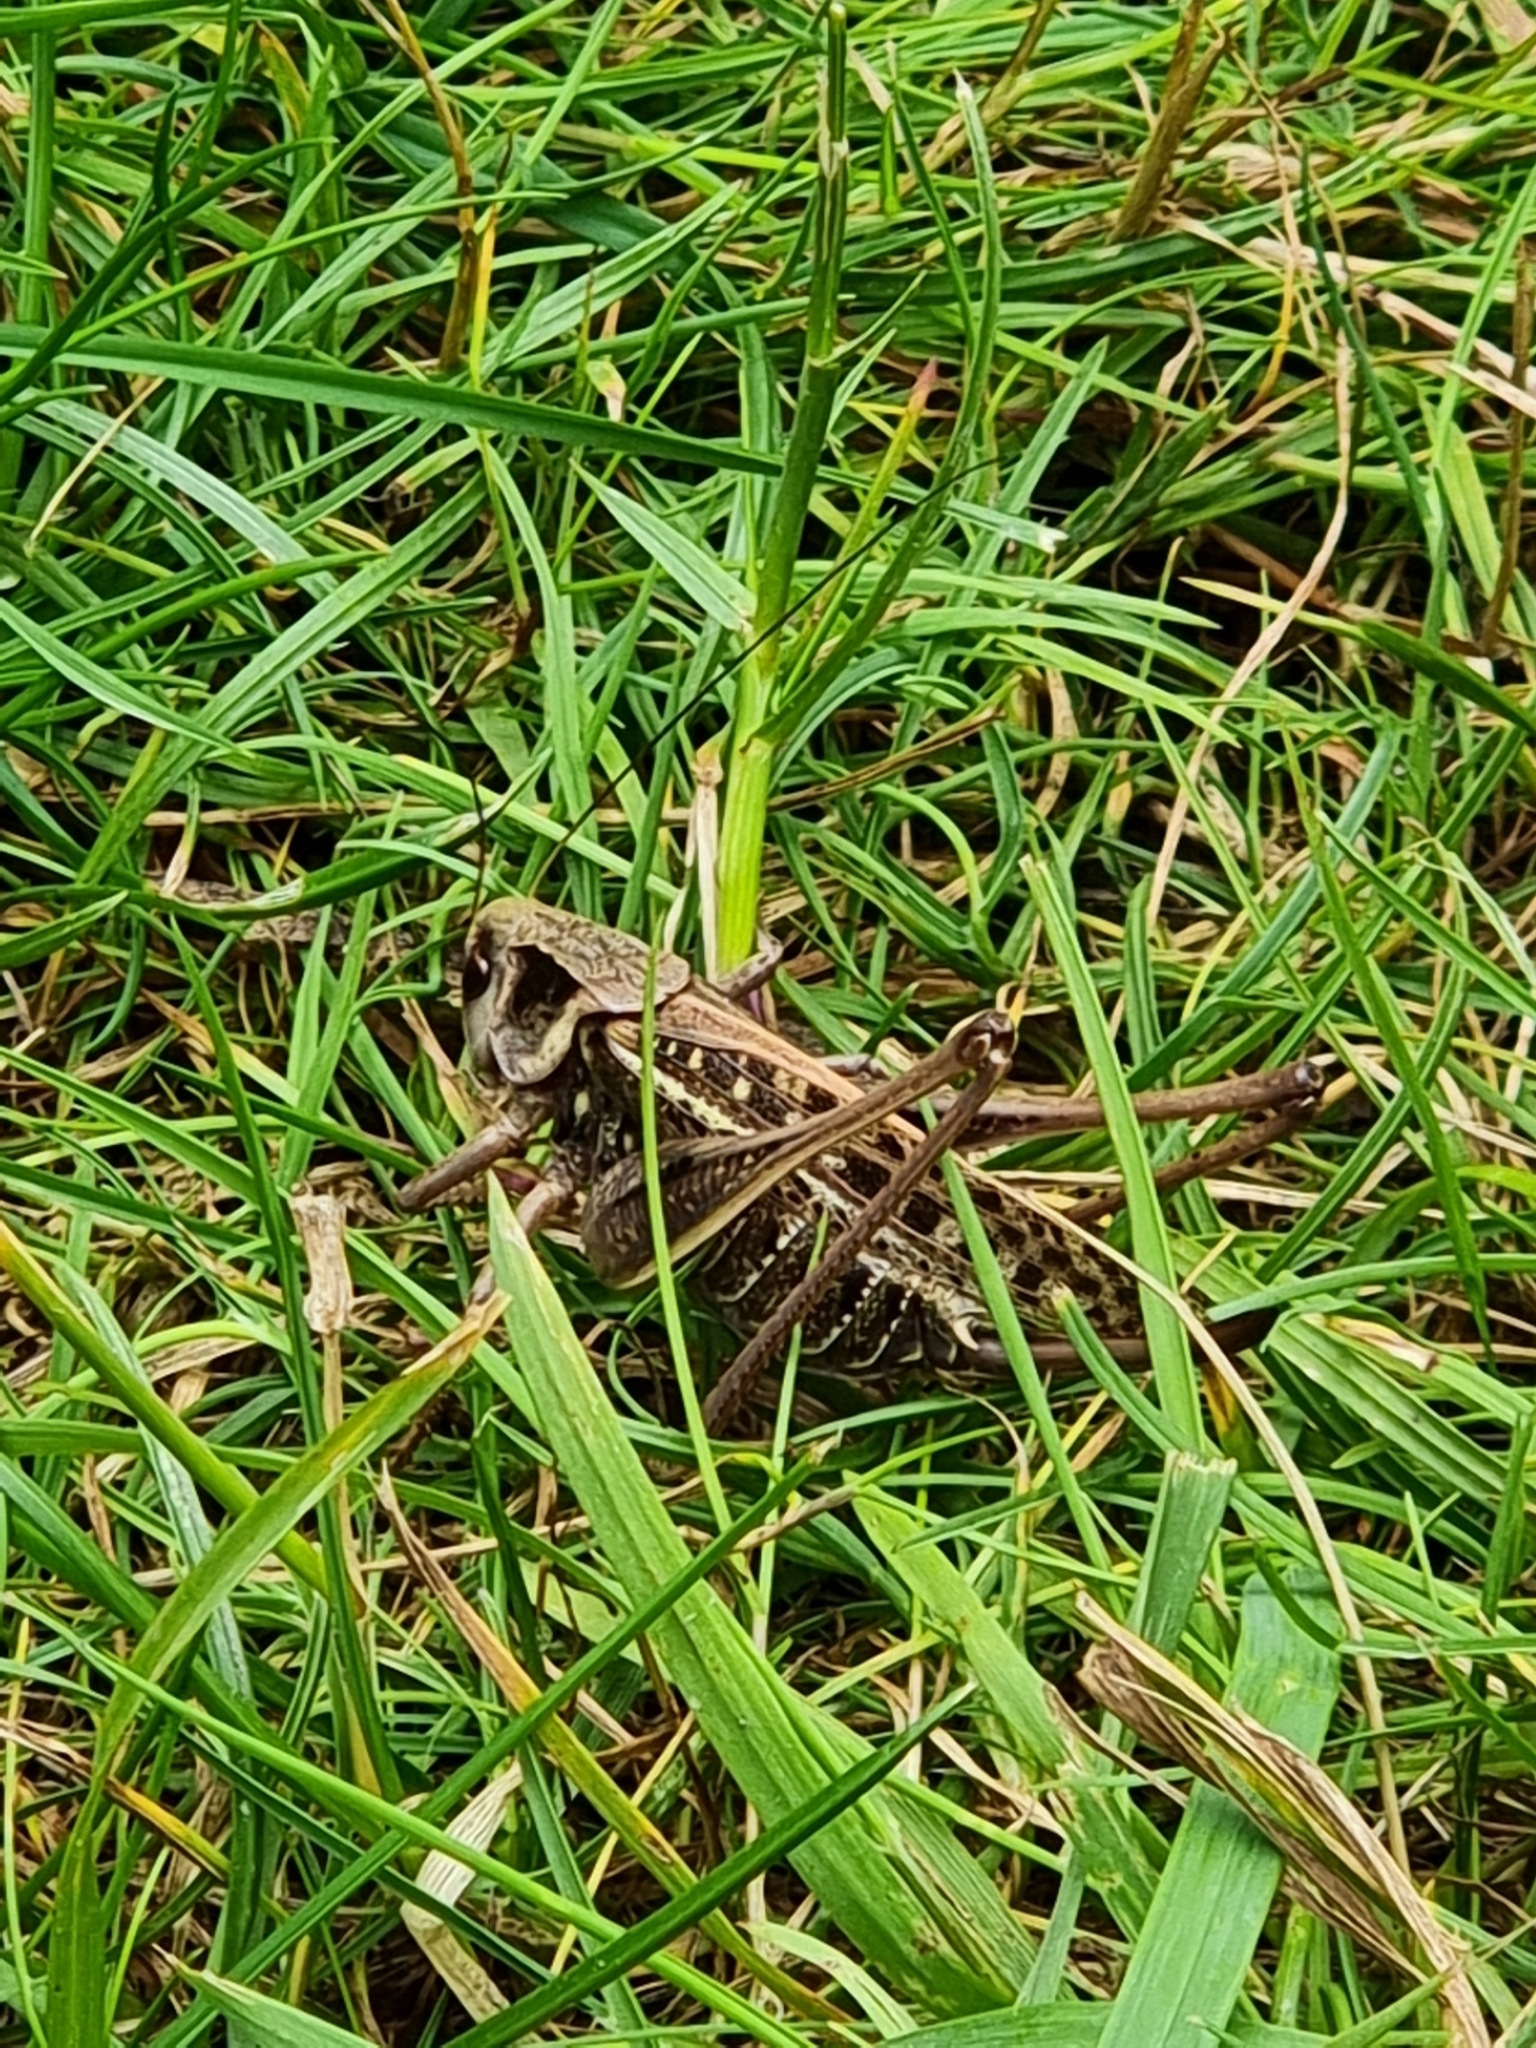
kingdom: Animalia
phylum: Arthropoda
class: Insecta
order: Orthoptera
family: Tettigoniidae
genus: Decticus
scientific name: Decticus verrucivorus
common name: Wart-biter
